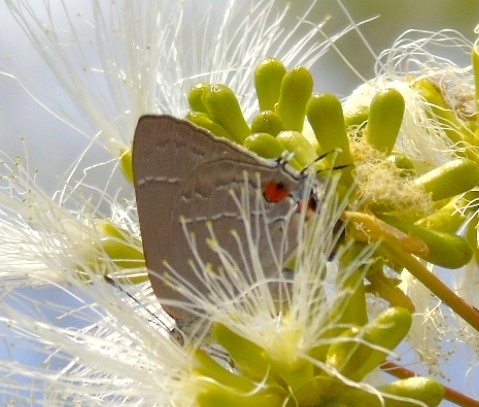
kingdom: Animalia
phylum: Arthropoda
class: Insecta
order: Lepidoptera
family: Lycaenidae
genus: Rekoa
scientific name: Rekoa
